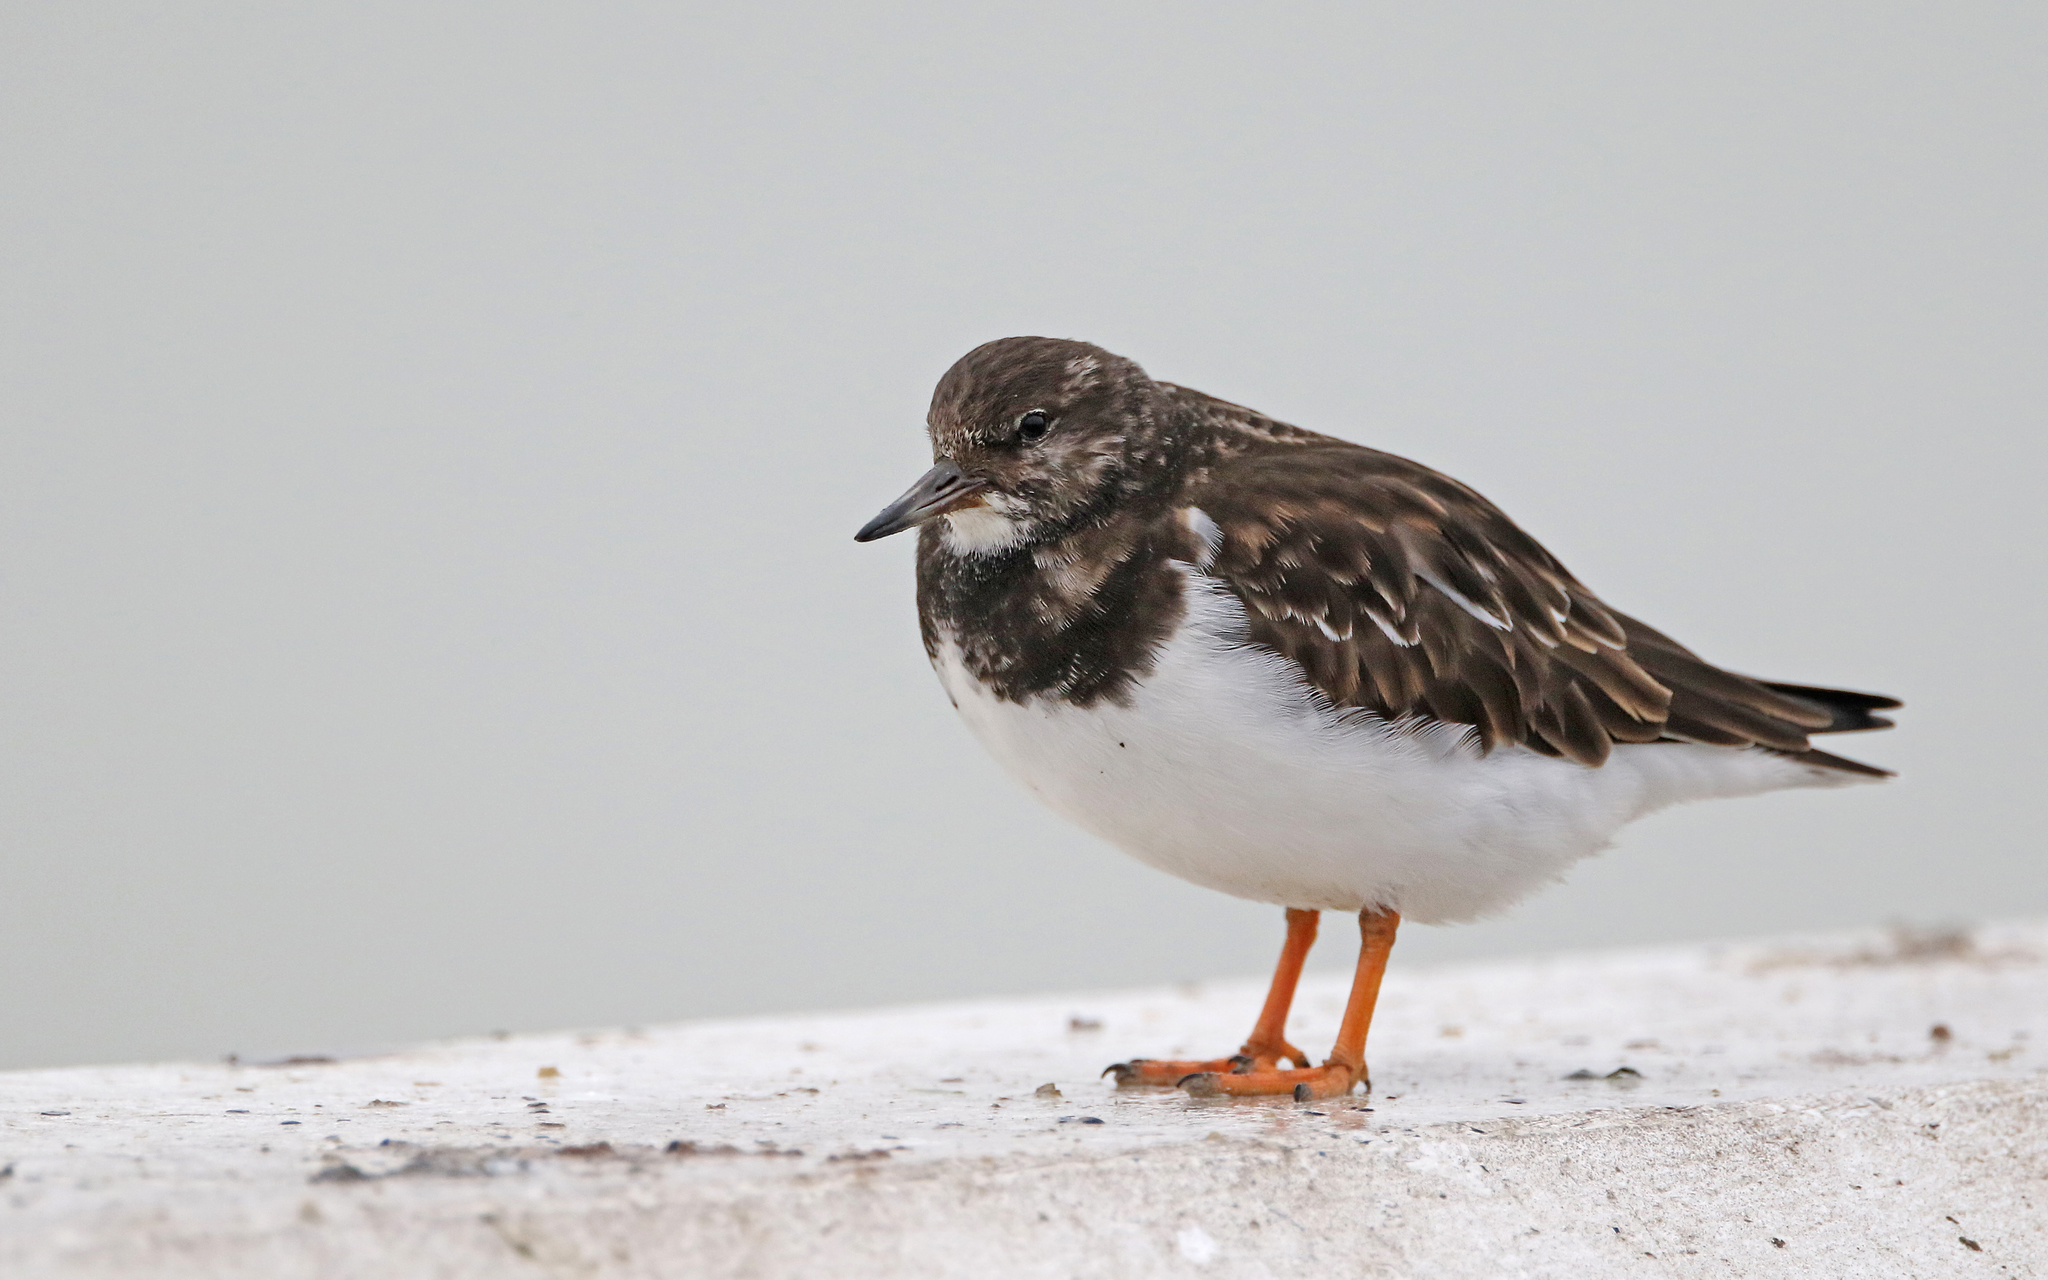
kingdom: Animalia
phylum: Chordata
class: Aves
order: Charadriiformes
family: Scolopacidae
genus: Arenaria
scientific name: Arenaria interpres
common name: Ruddy turnstone
